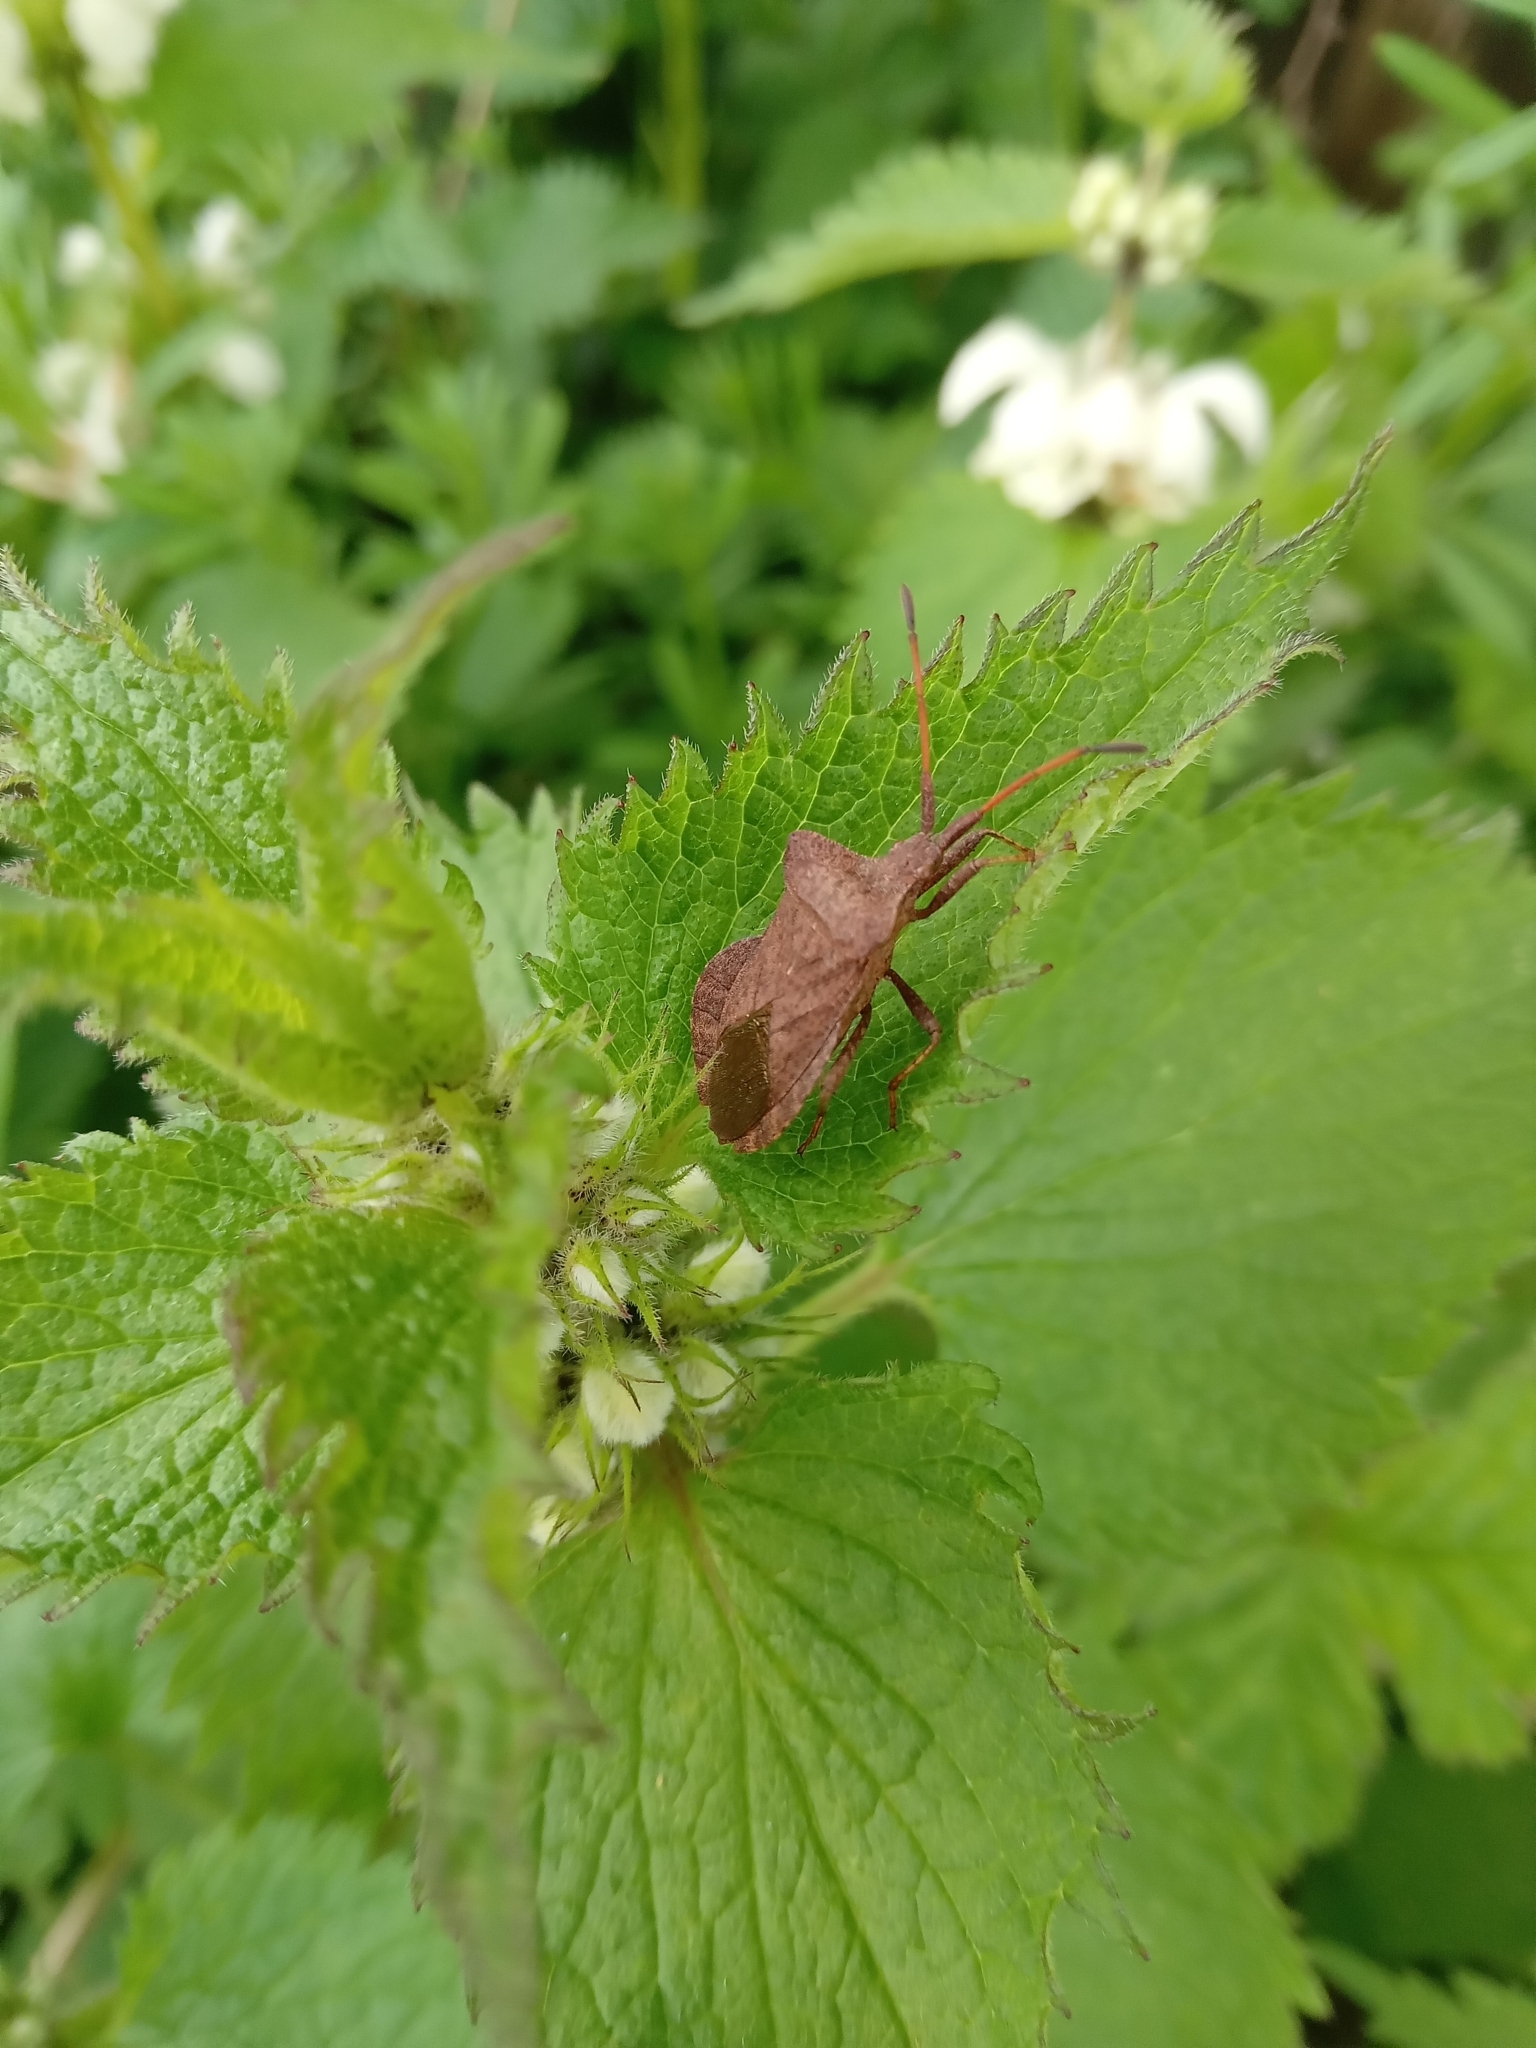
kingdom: Animalia
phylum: Arthropoda
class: Insecta
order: Hemiptera
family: Coreidae
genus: Coreus
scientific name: Coreus marginatus
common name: Dock bug
